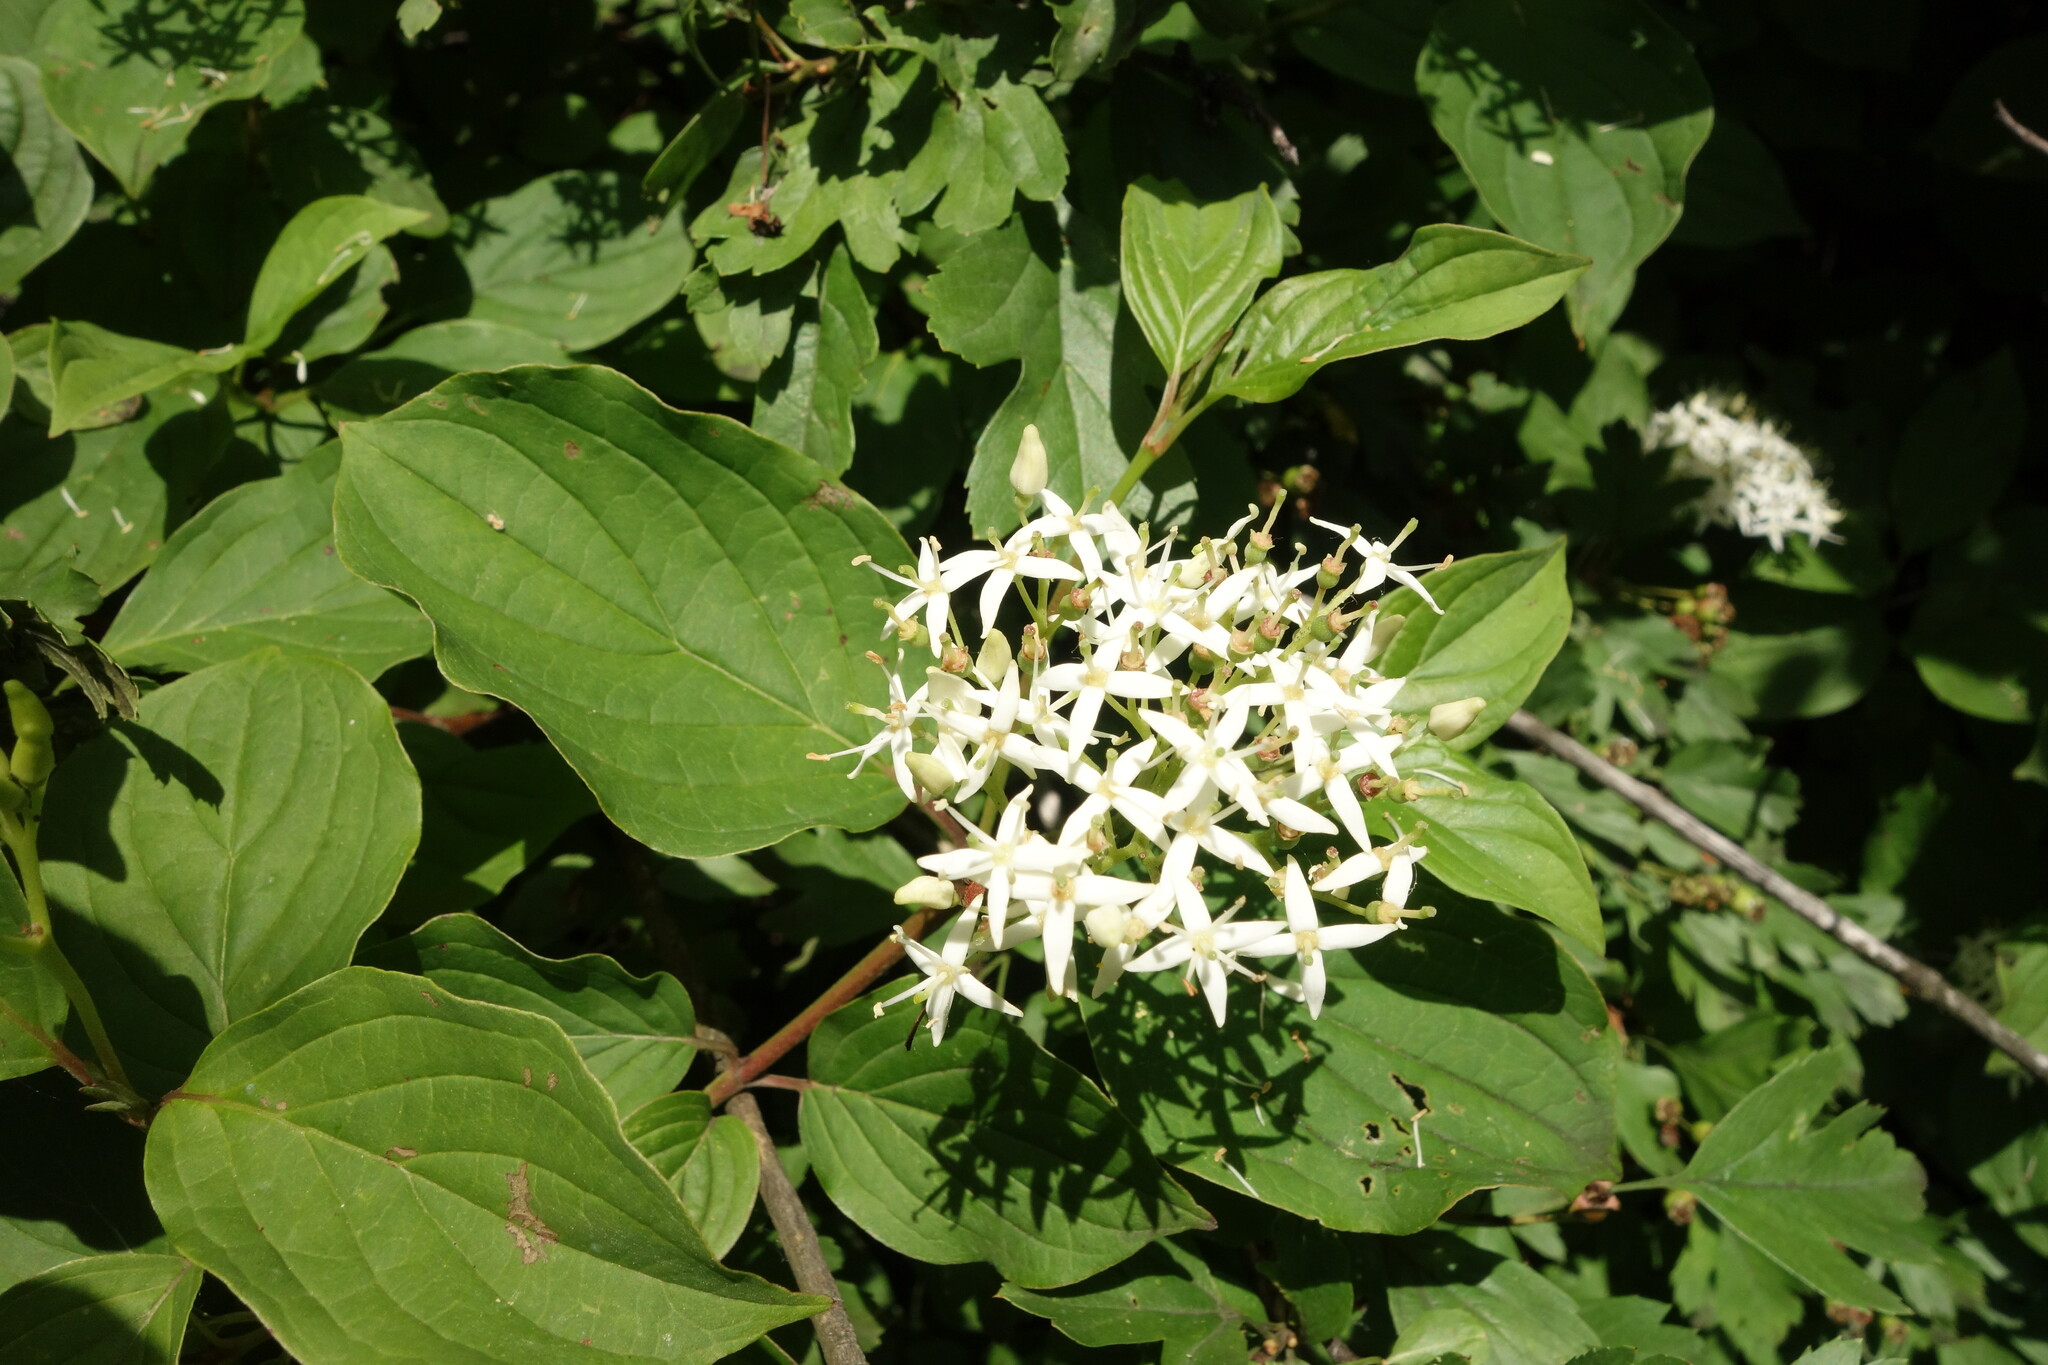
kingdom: Plantae
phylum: Tracheophyta
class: Magnoliopsida
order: Cornales
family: Cornaceae
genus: Cornus
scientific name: Cornus sanguinea
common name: Dogwood
